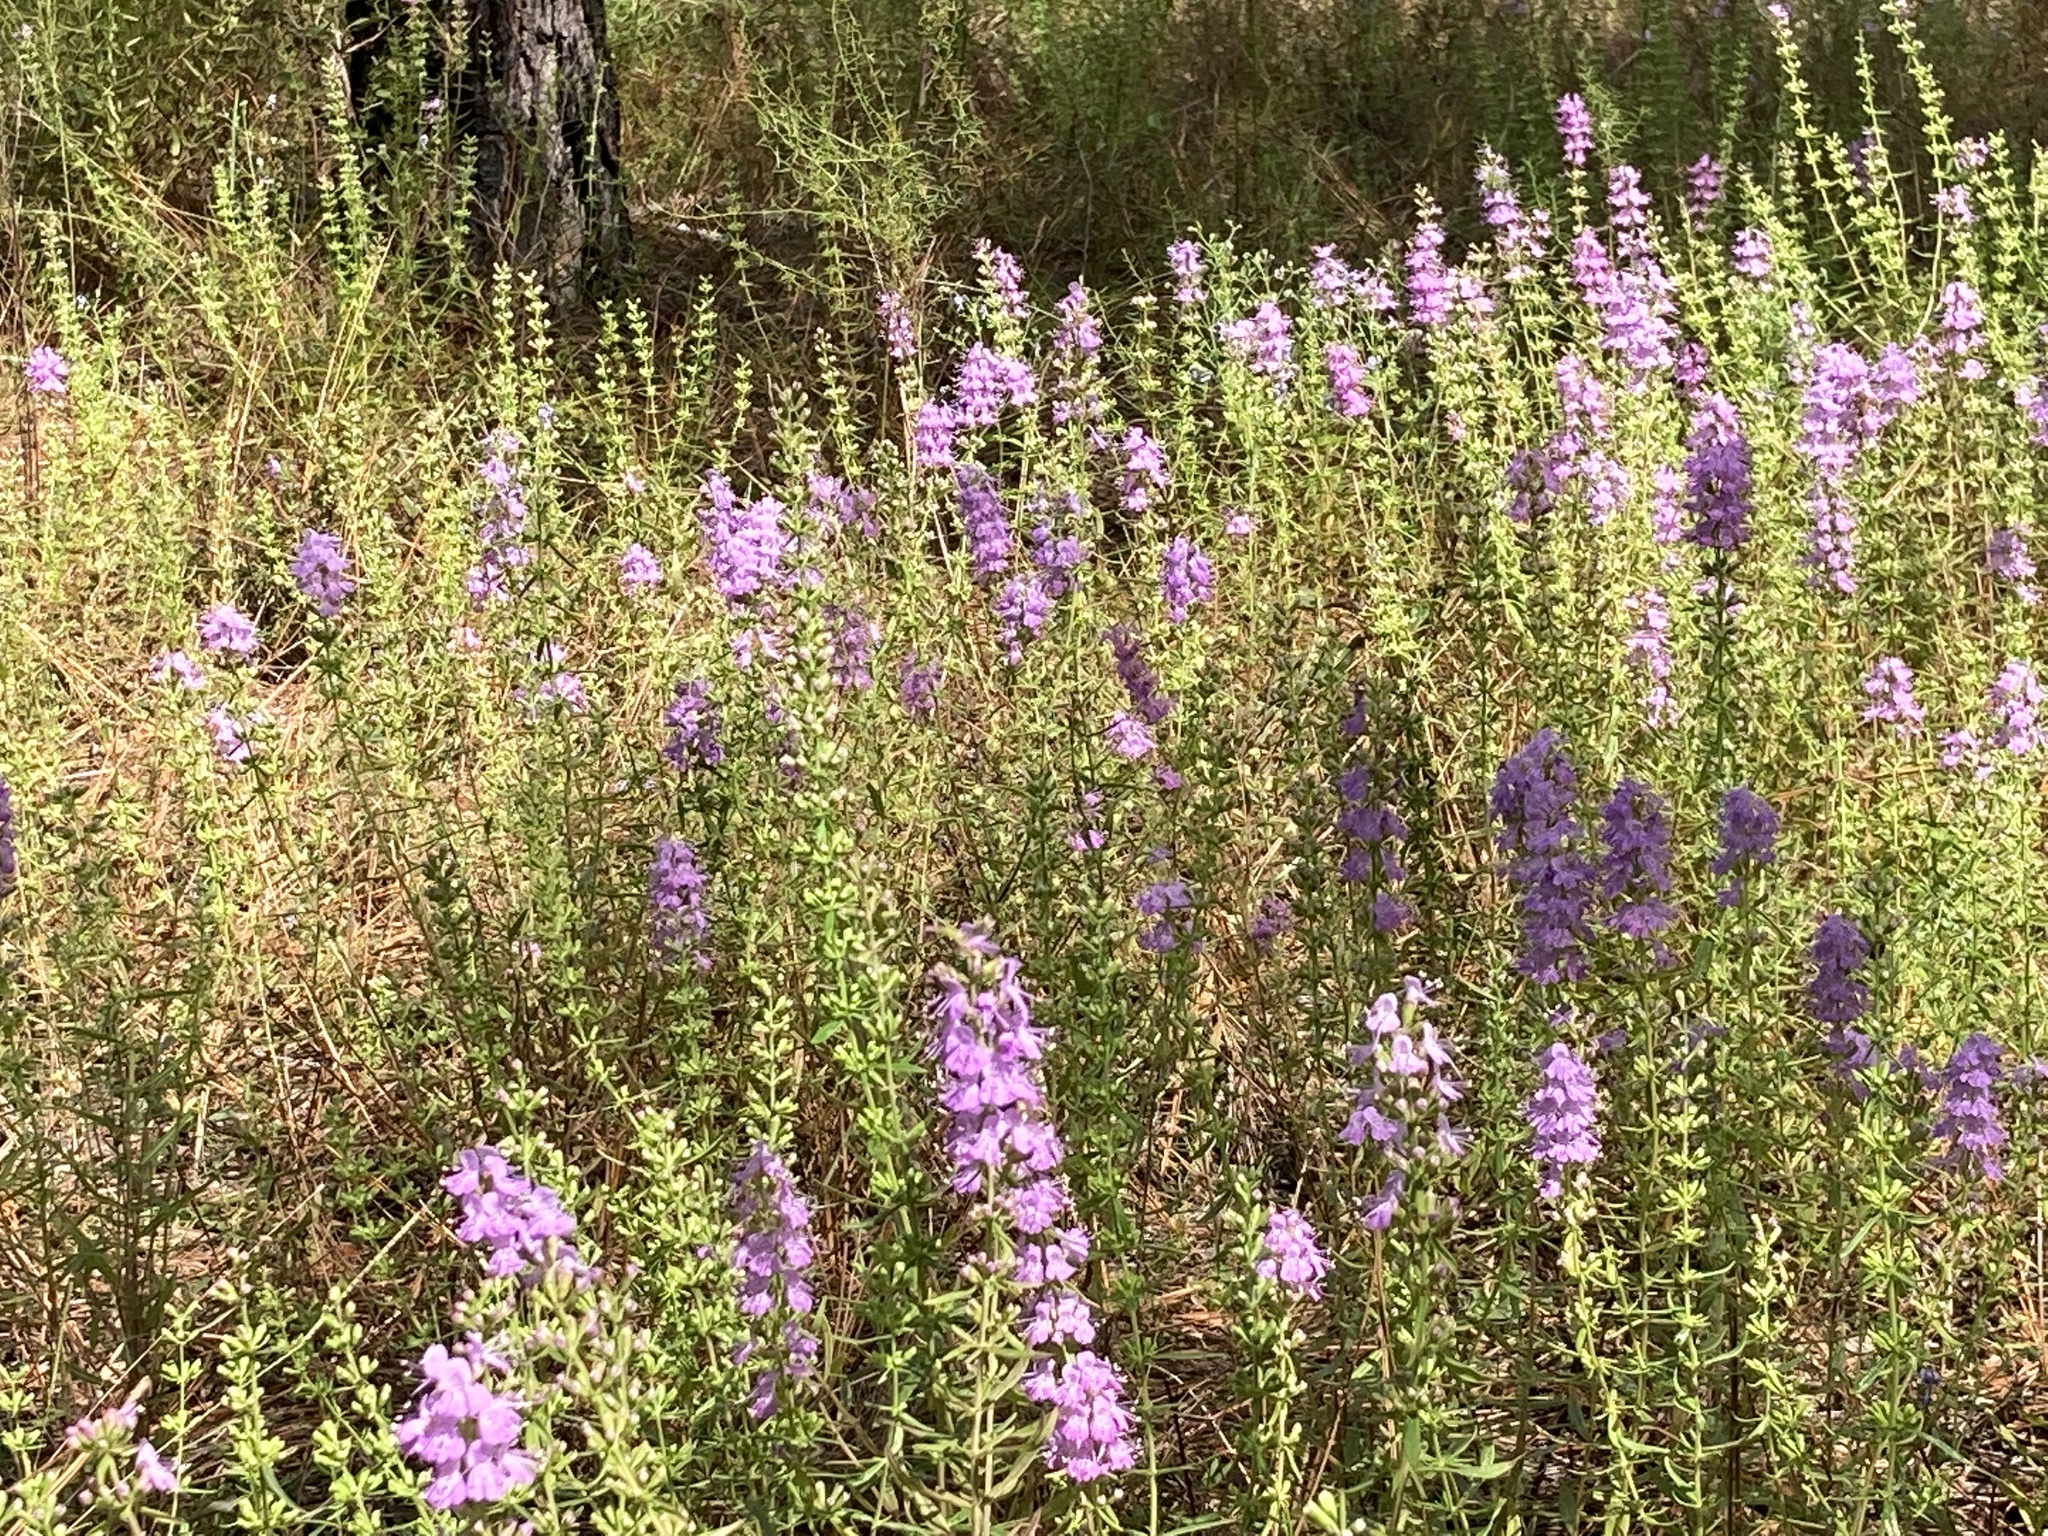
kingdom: Plantae
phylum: Tracheophyta
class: Magnoliopsida
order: Lamiales
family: Lamiaceae
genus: Dicerandra
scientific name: Dicerandra densiflora
